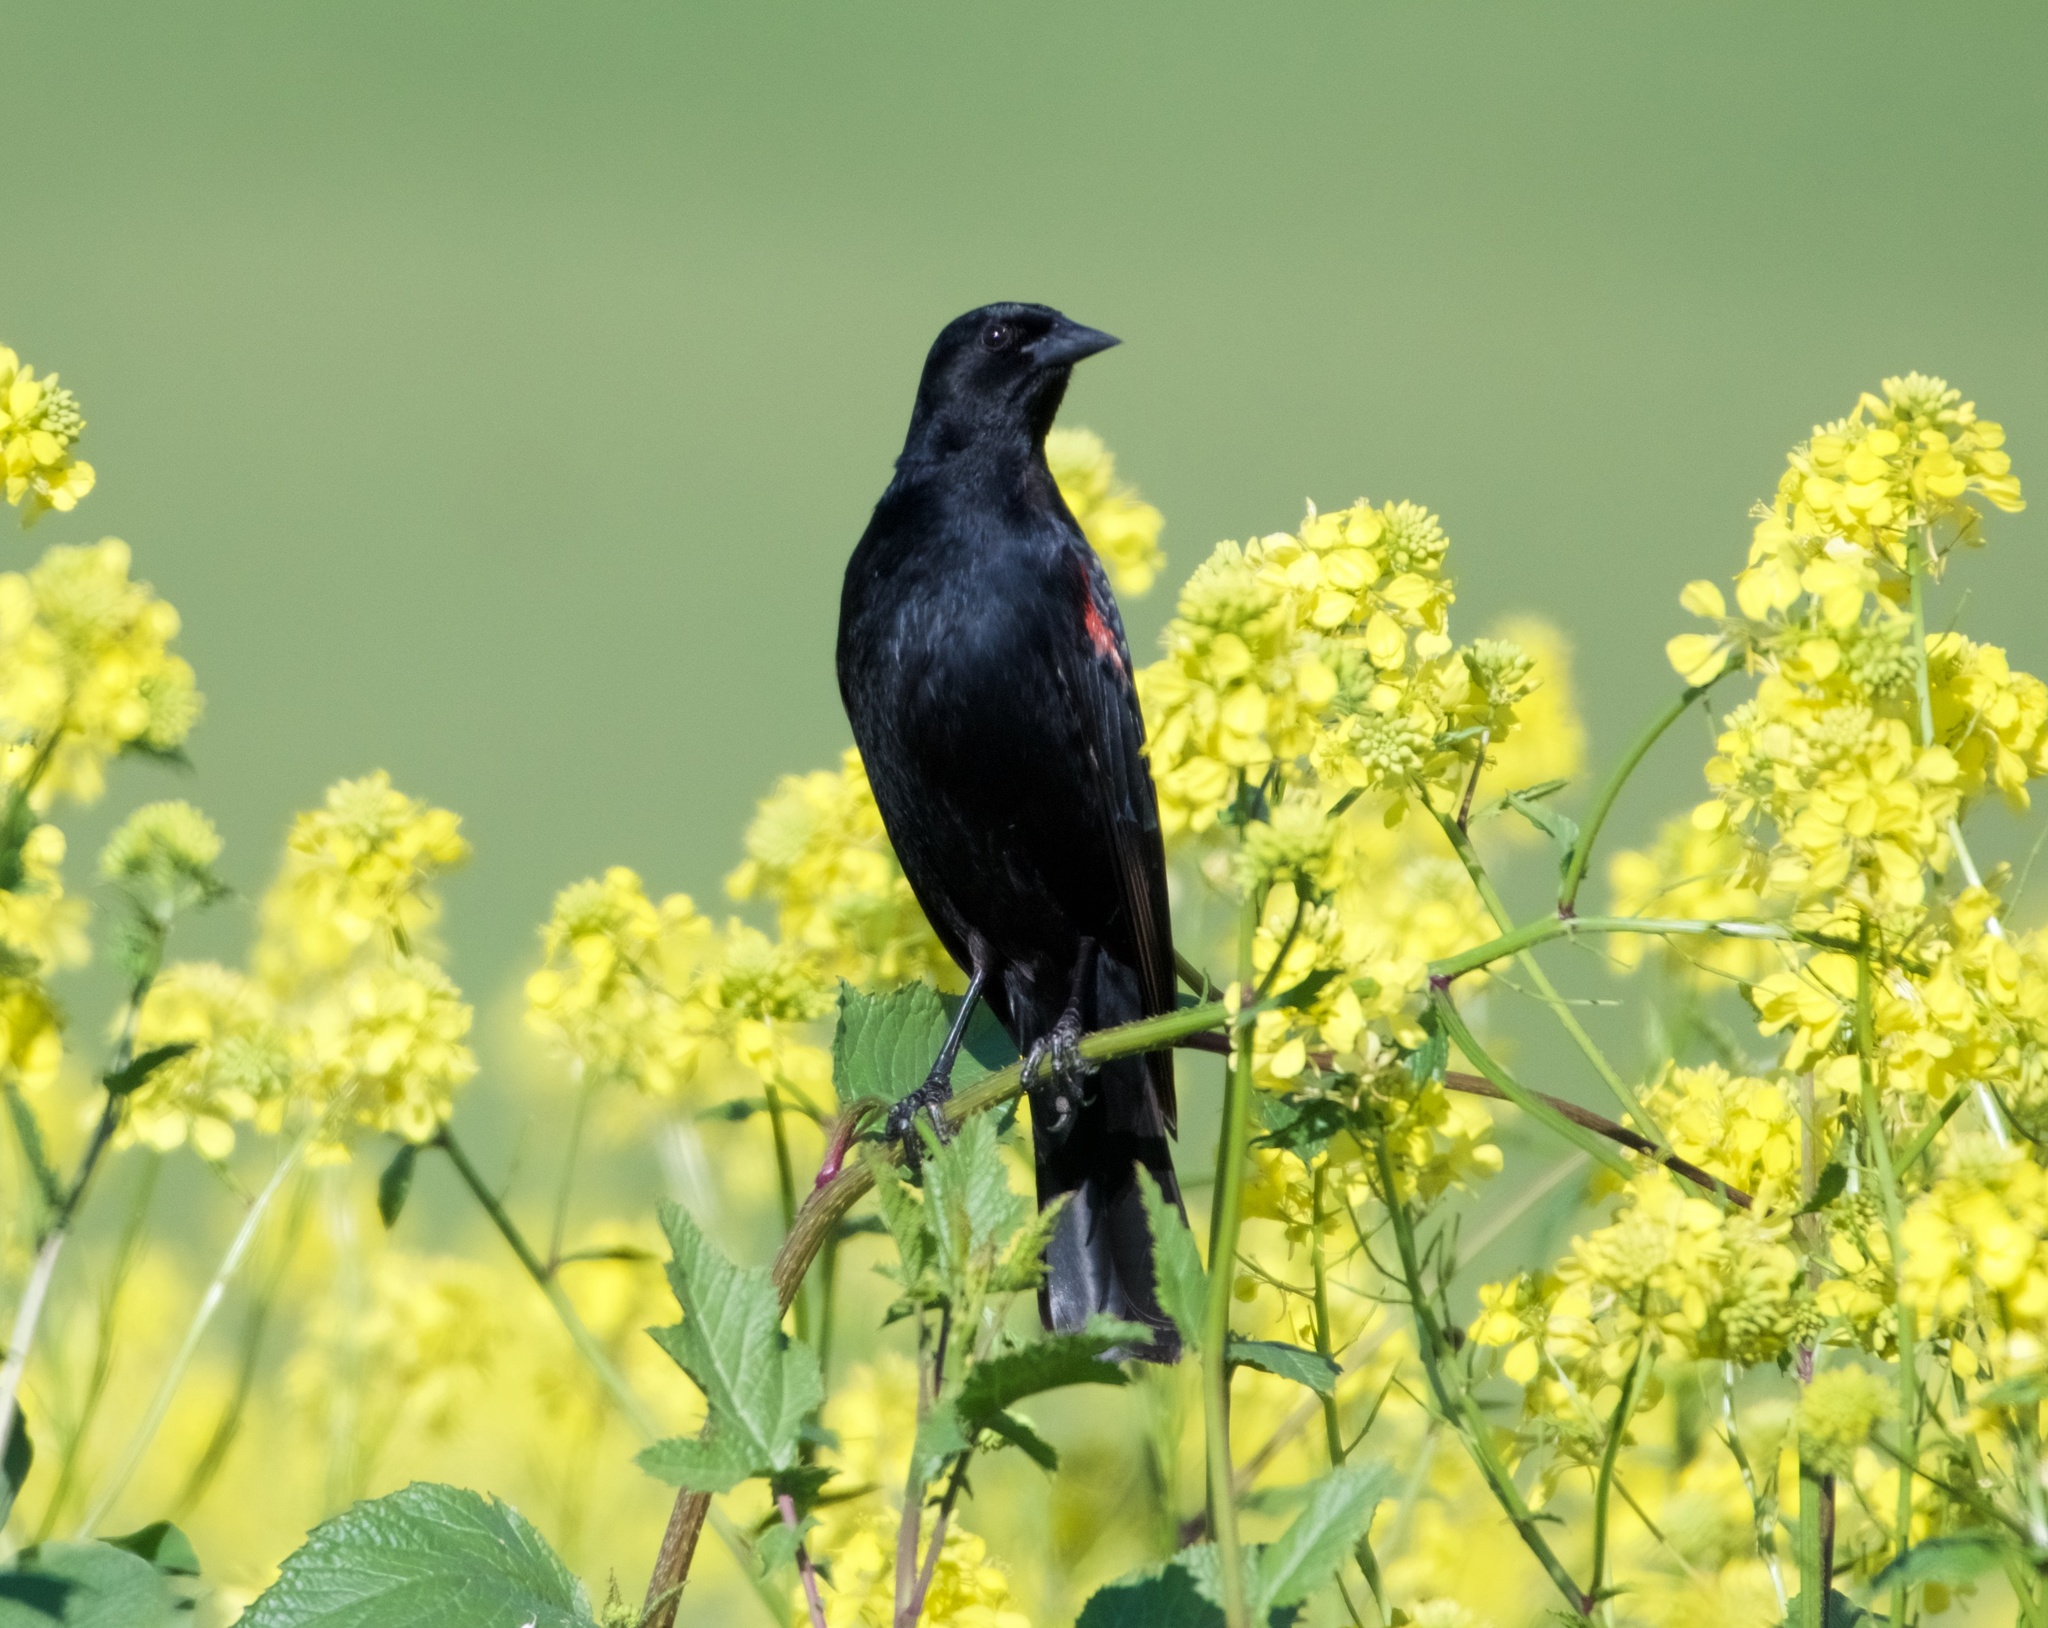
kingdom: Animalia
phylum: Chordata
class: Aves
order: Passeriformes
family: Icteridae
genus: Agelaius
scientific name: Agelaius phoeniceus
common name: Red-winged blackbird
